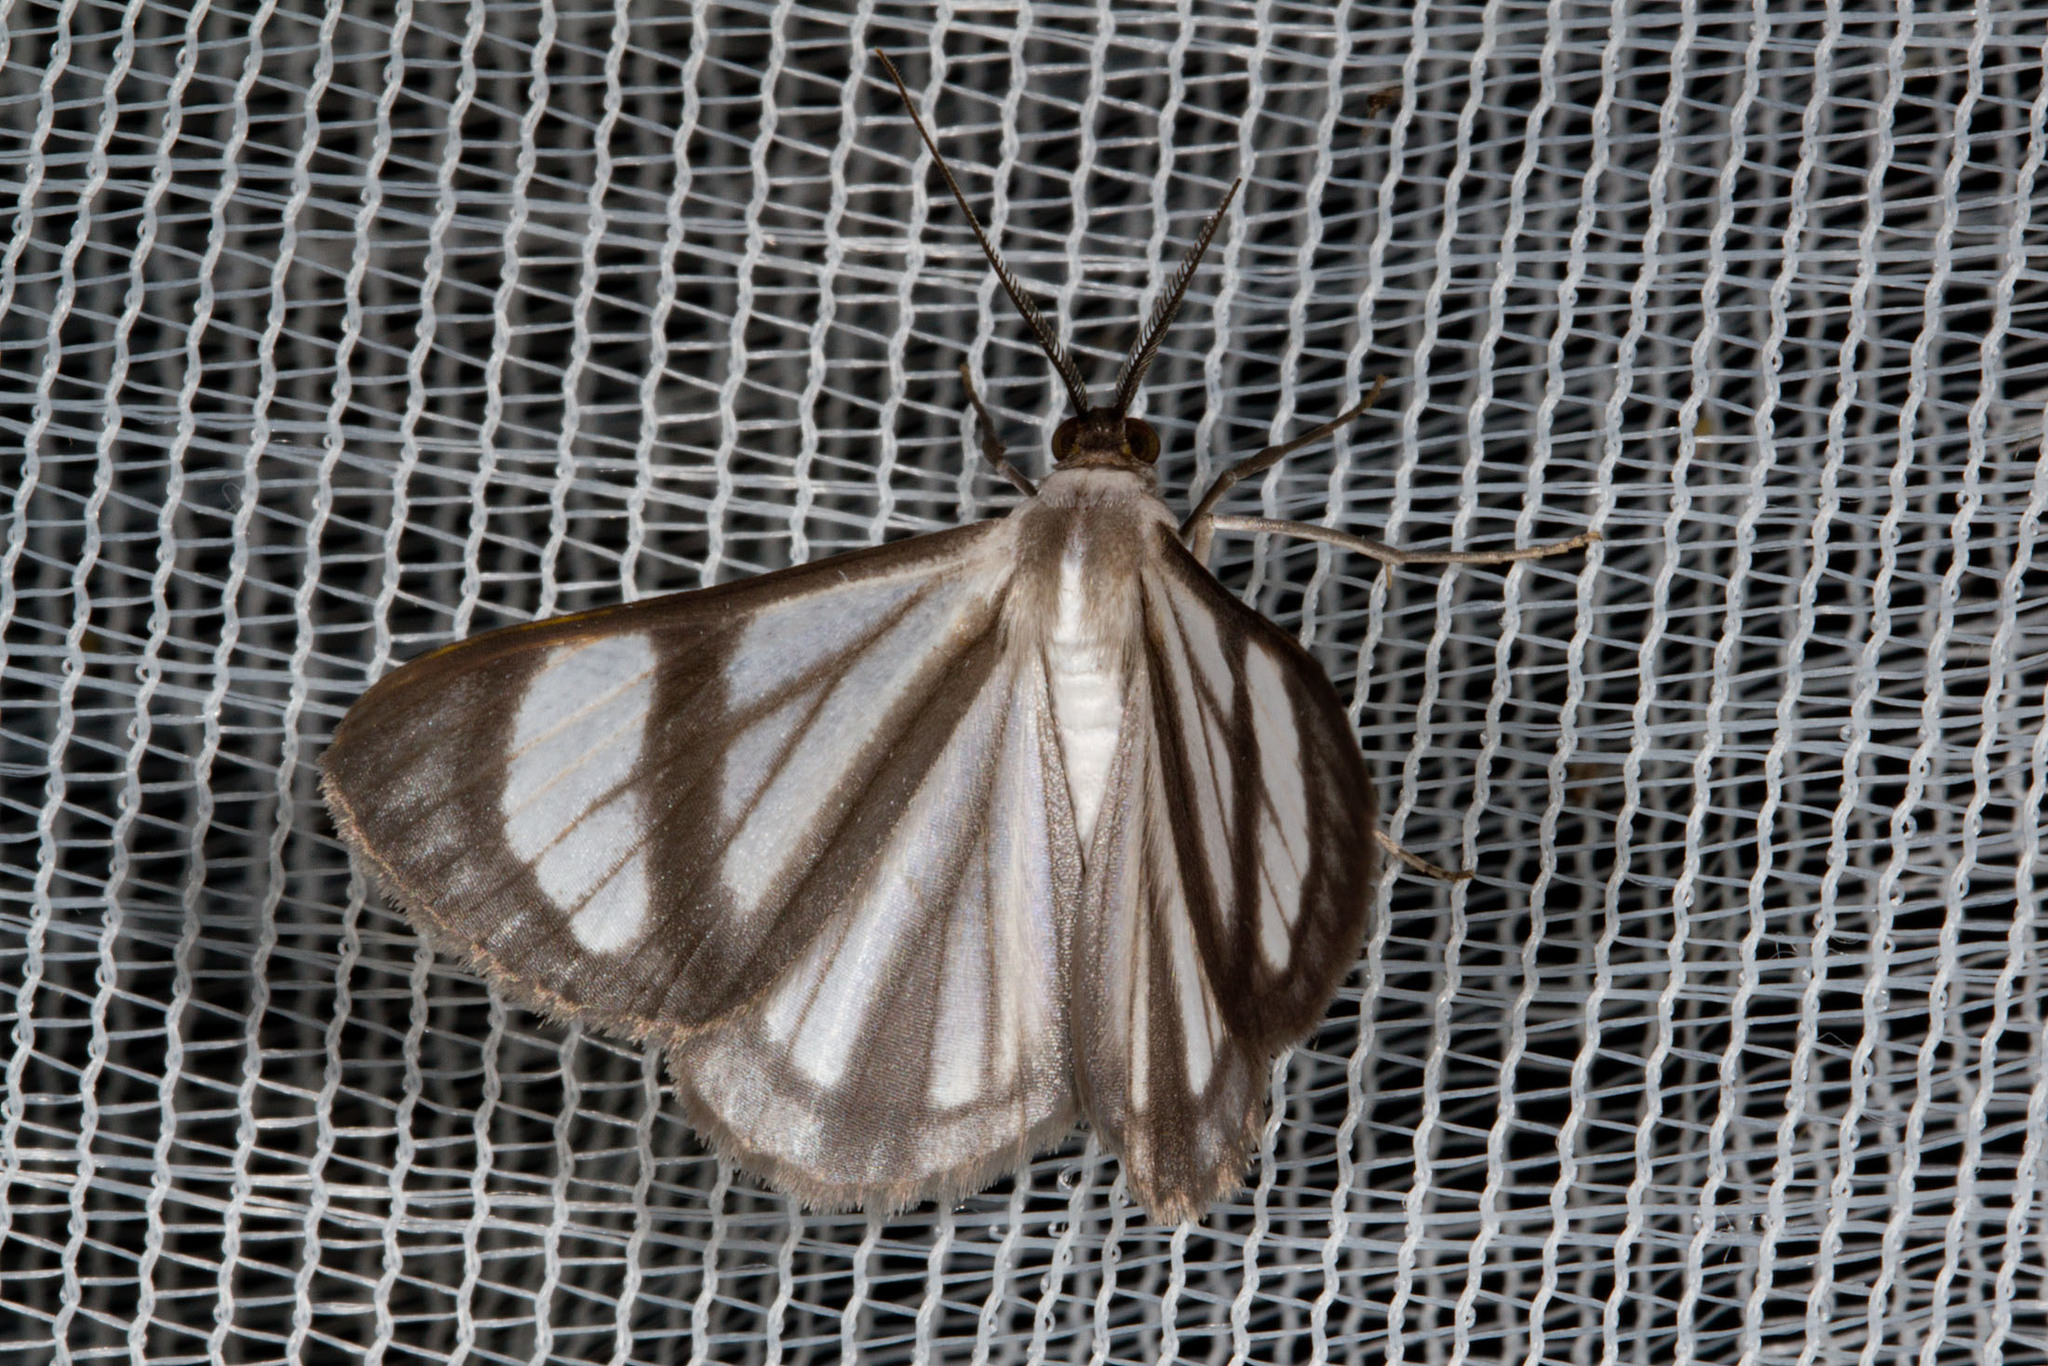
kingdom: Animalia
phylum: Arthropoda
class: Insecta
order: Lepidoptera
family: Geometridae
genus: Genussa
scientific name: Genussa famulata
